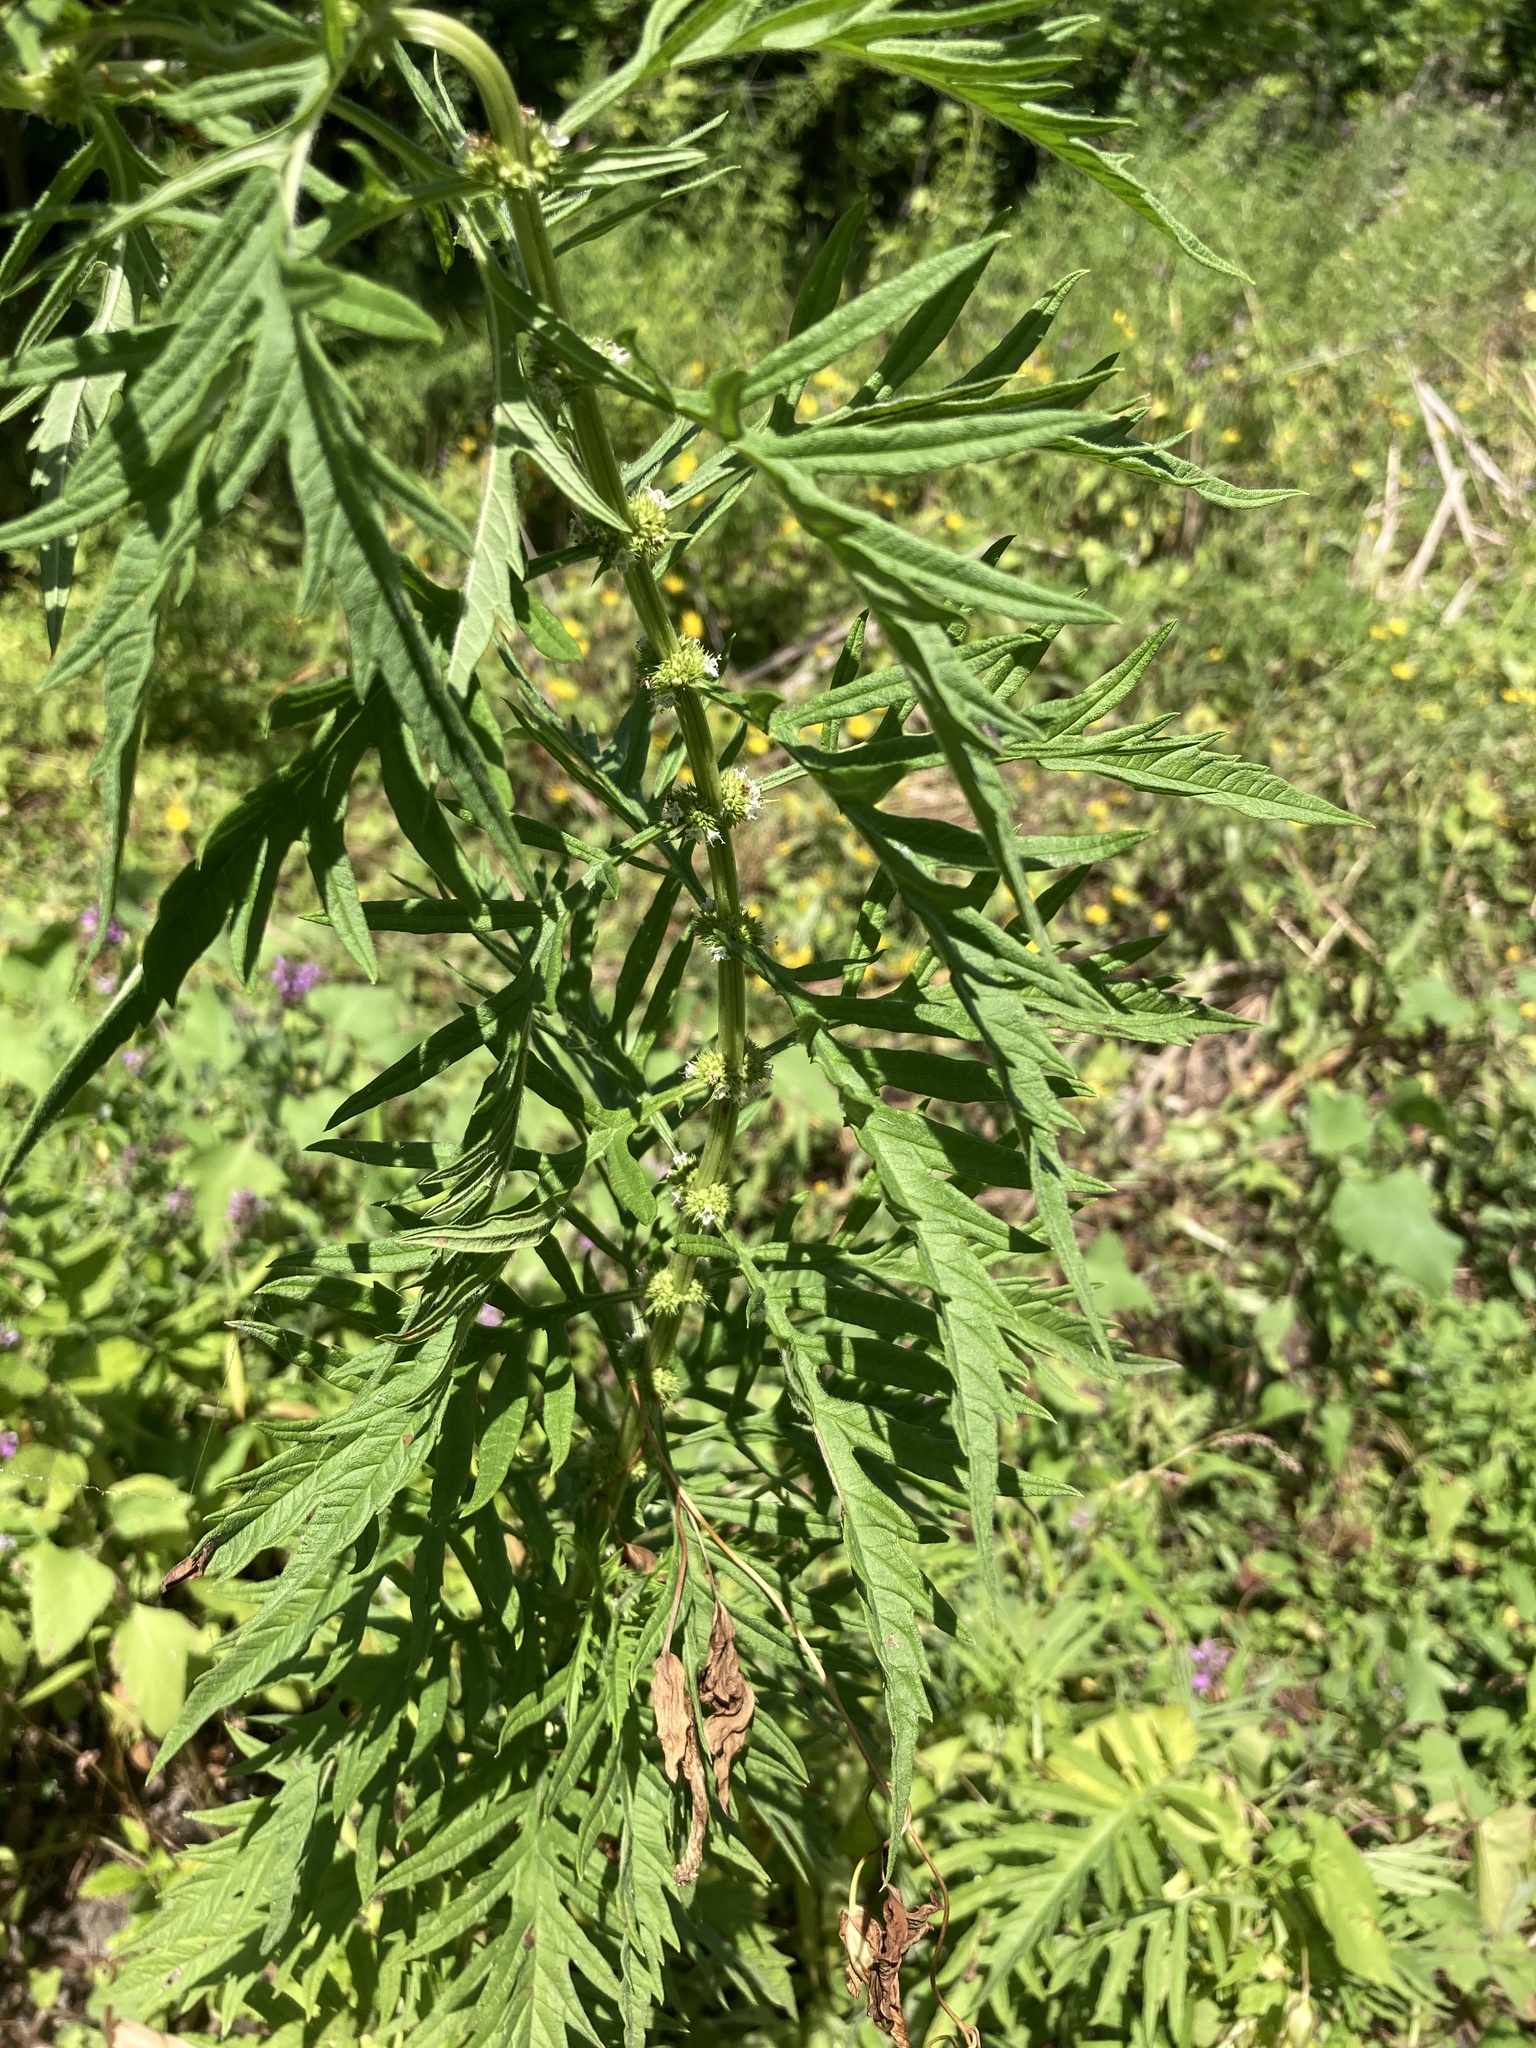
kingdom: Plantae
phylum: Tracheophyta
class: Magnoliopsida
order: Lamiales
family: Lamiaceae
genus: Lycopus
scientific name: Lycopus exaltatus
